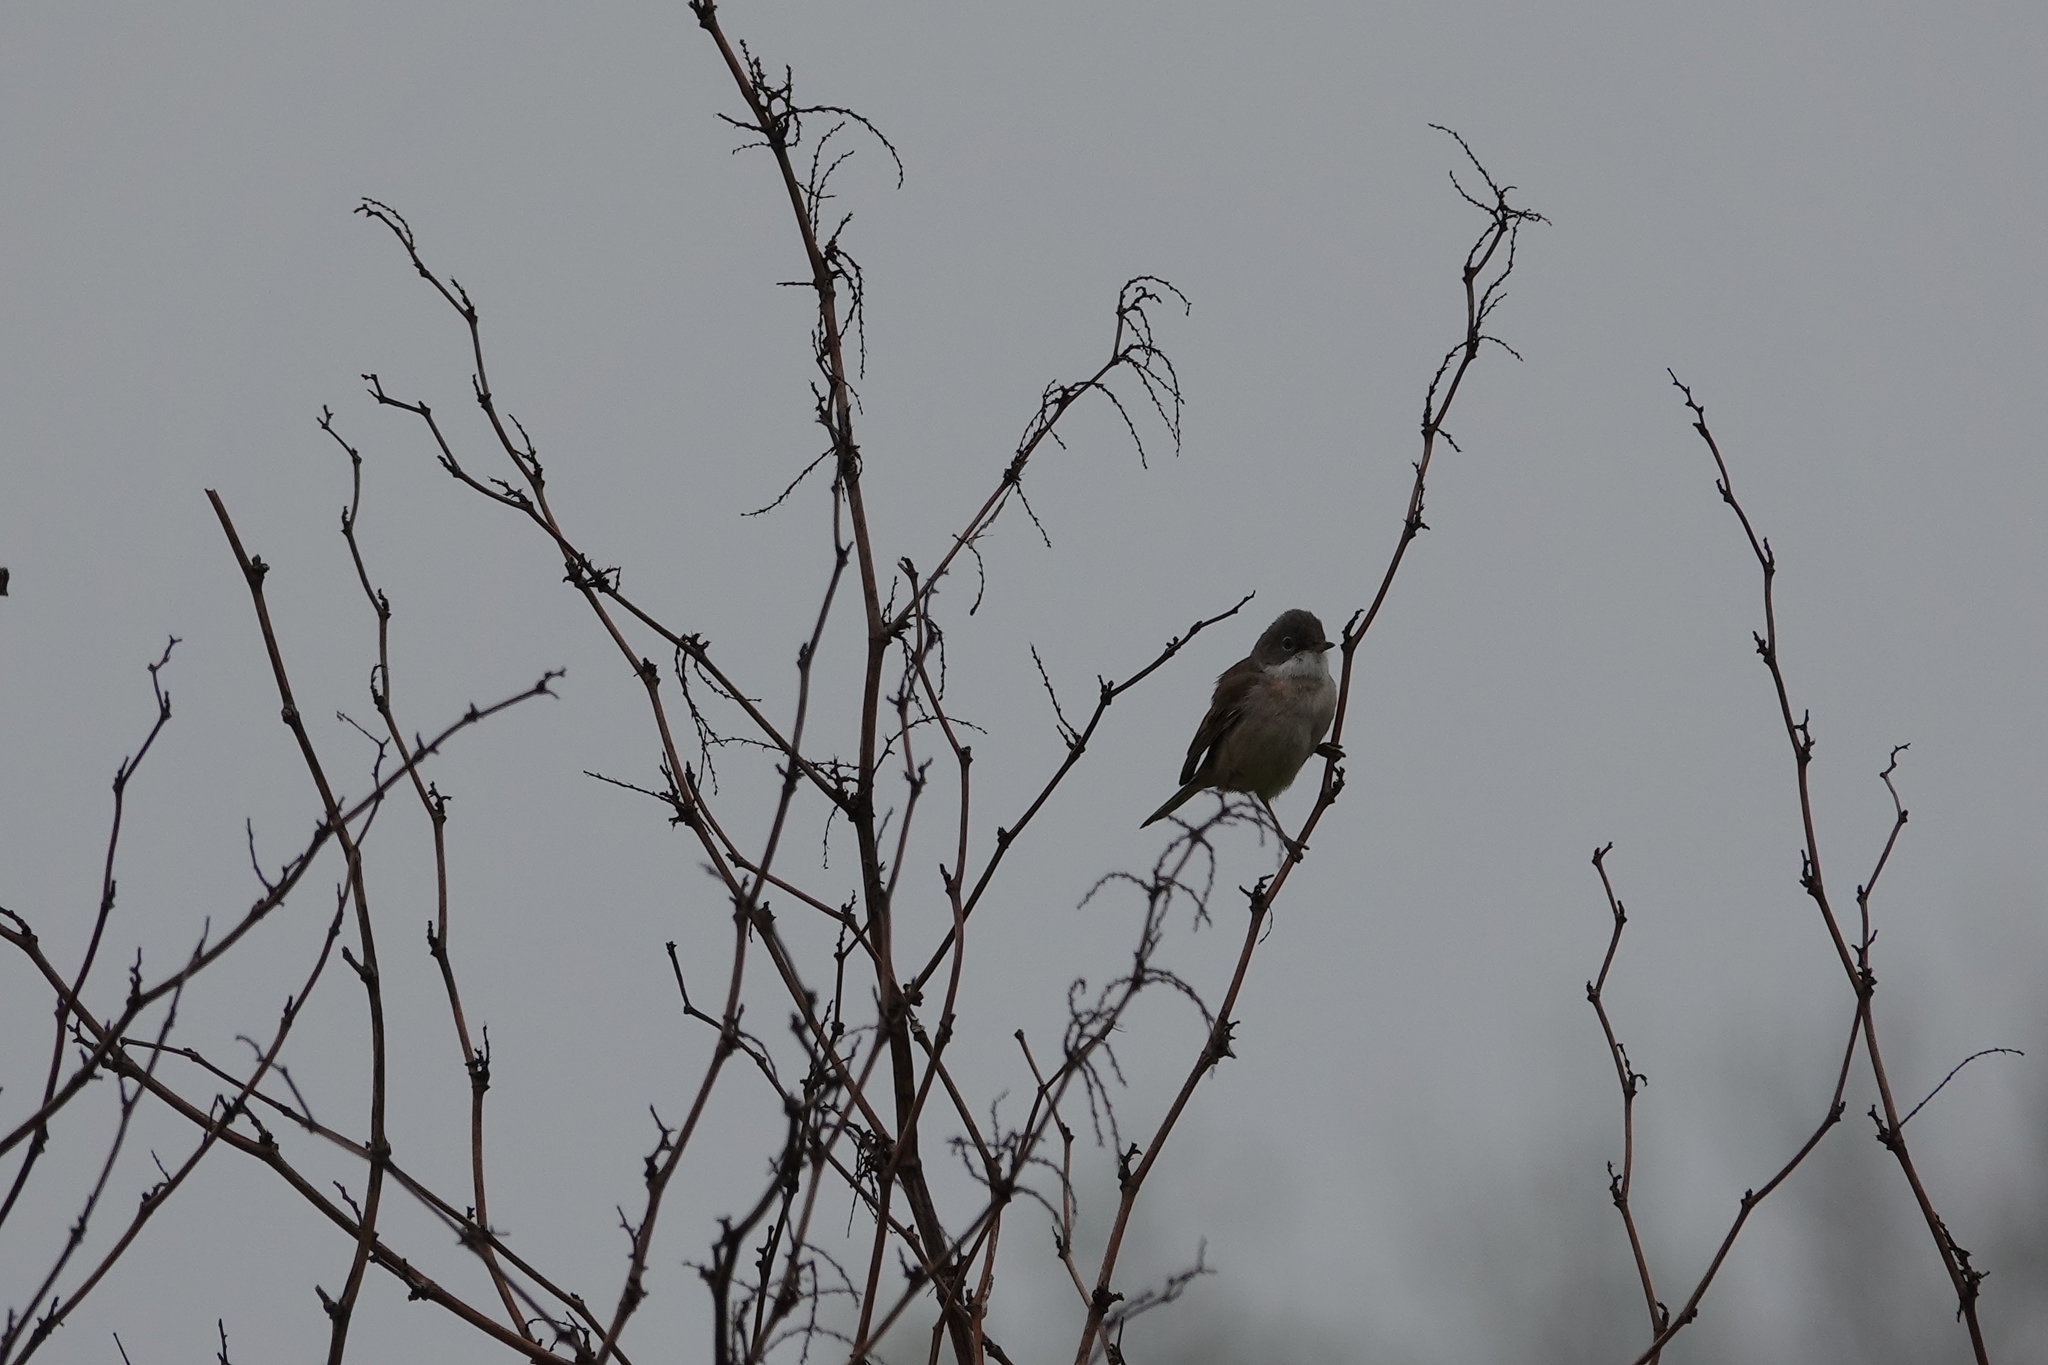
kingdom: Animalia
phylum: Chordata
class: Aves
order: Passeriformes
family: Sylviidae
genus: Sylvia
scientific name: Sylvia communis
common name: Common whitethroat
